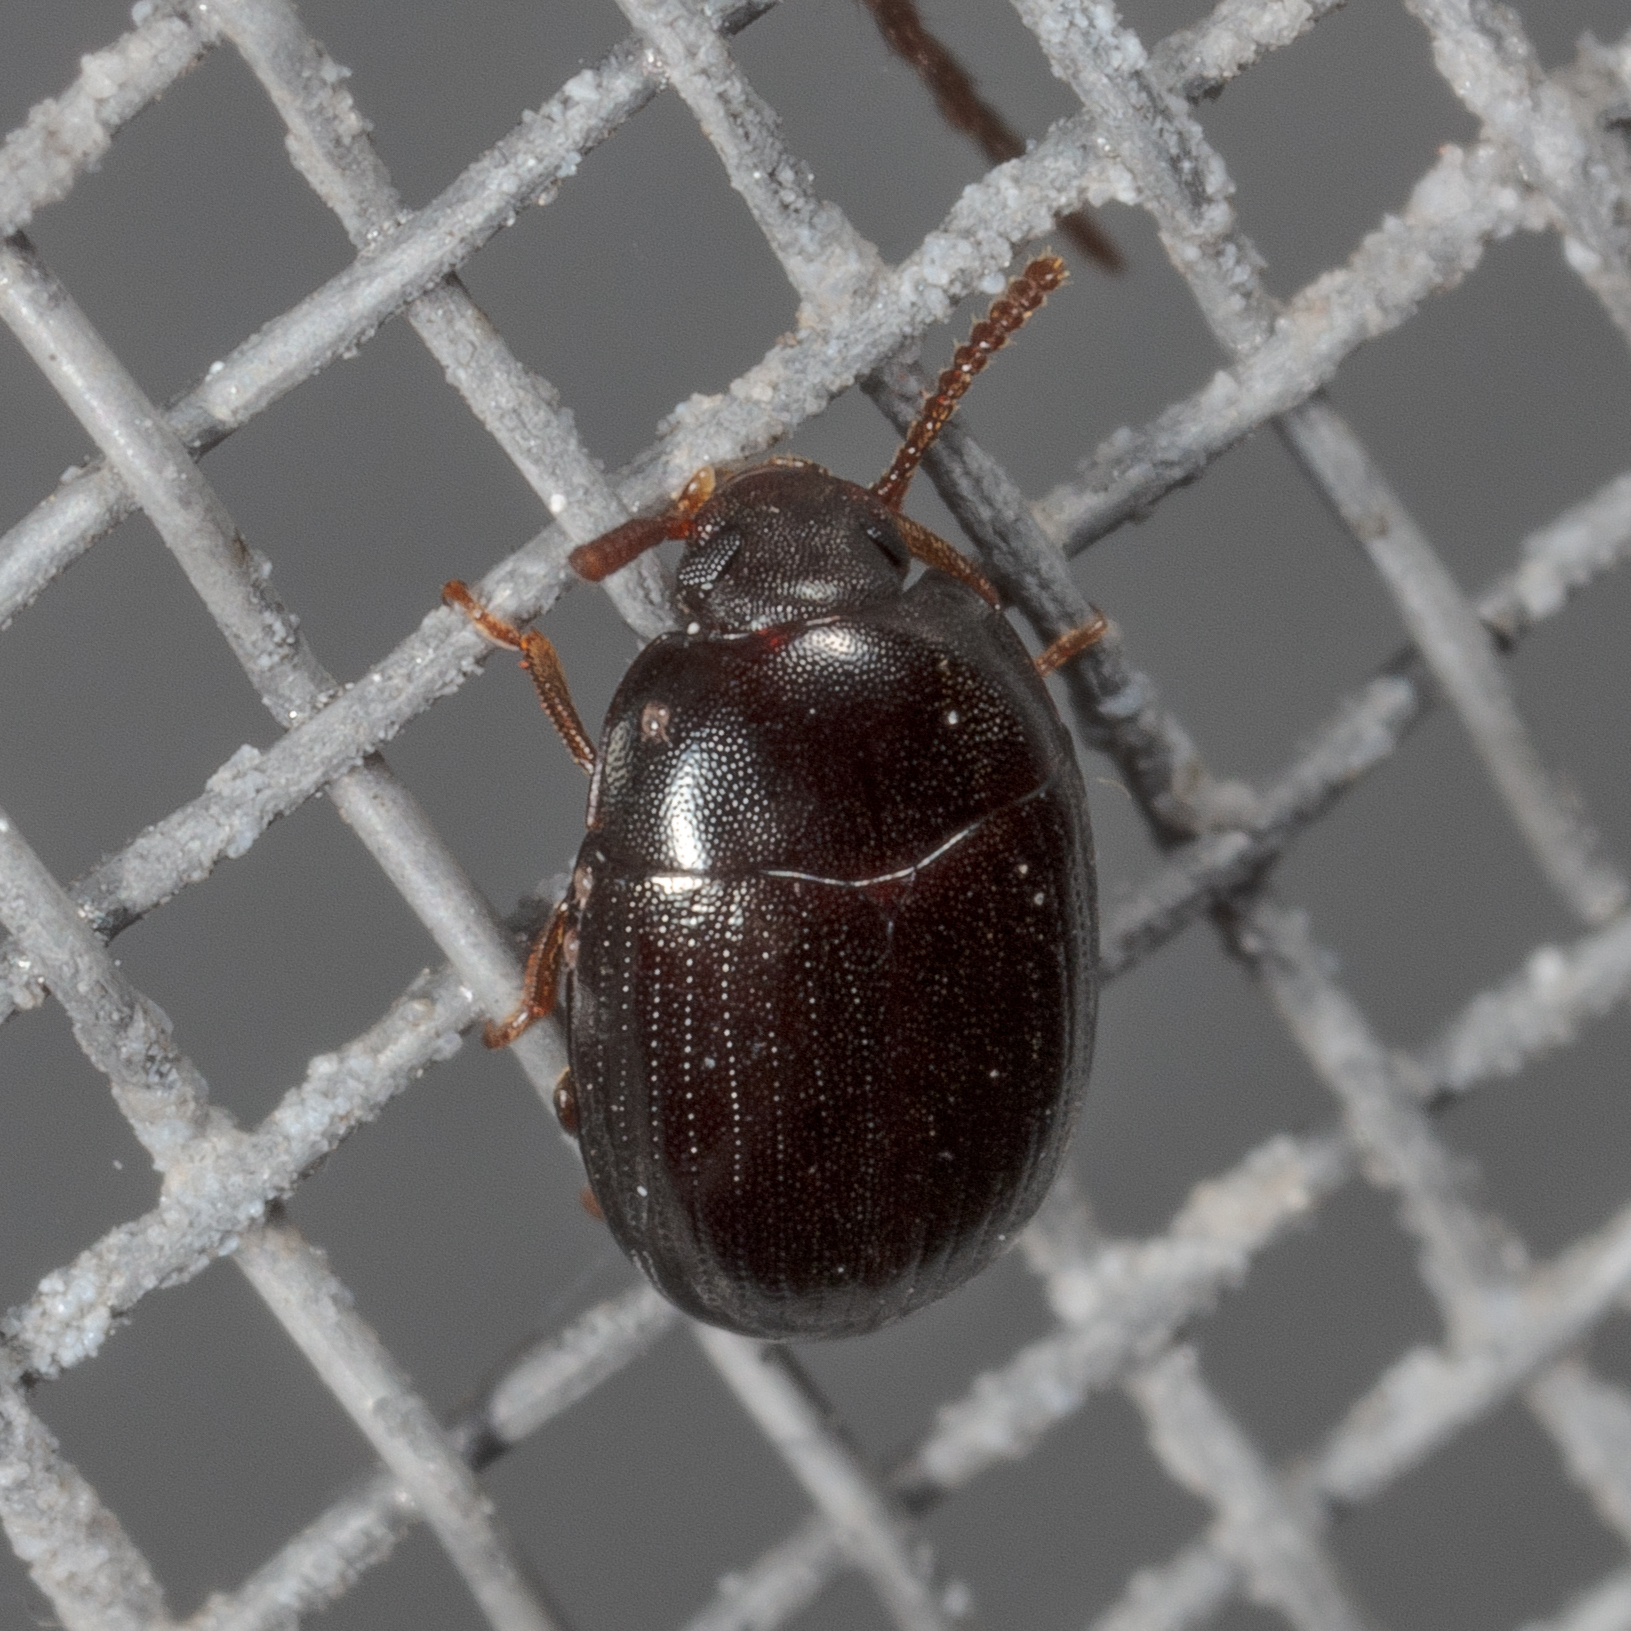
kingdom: Animalia
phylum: Arthropoda
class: Insecta
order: Coleoptera
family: Tenebrionidae
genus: Platydema
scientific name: Platydema micans
